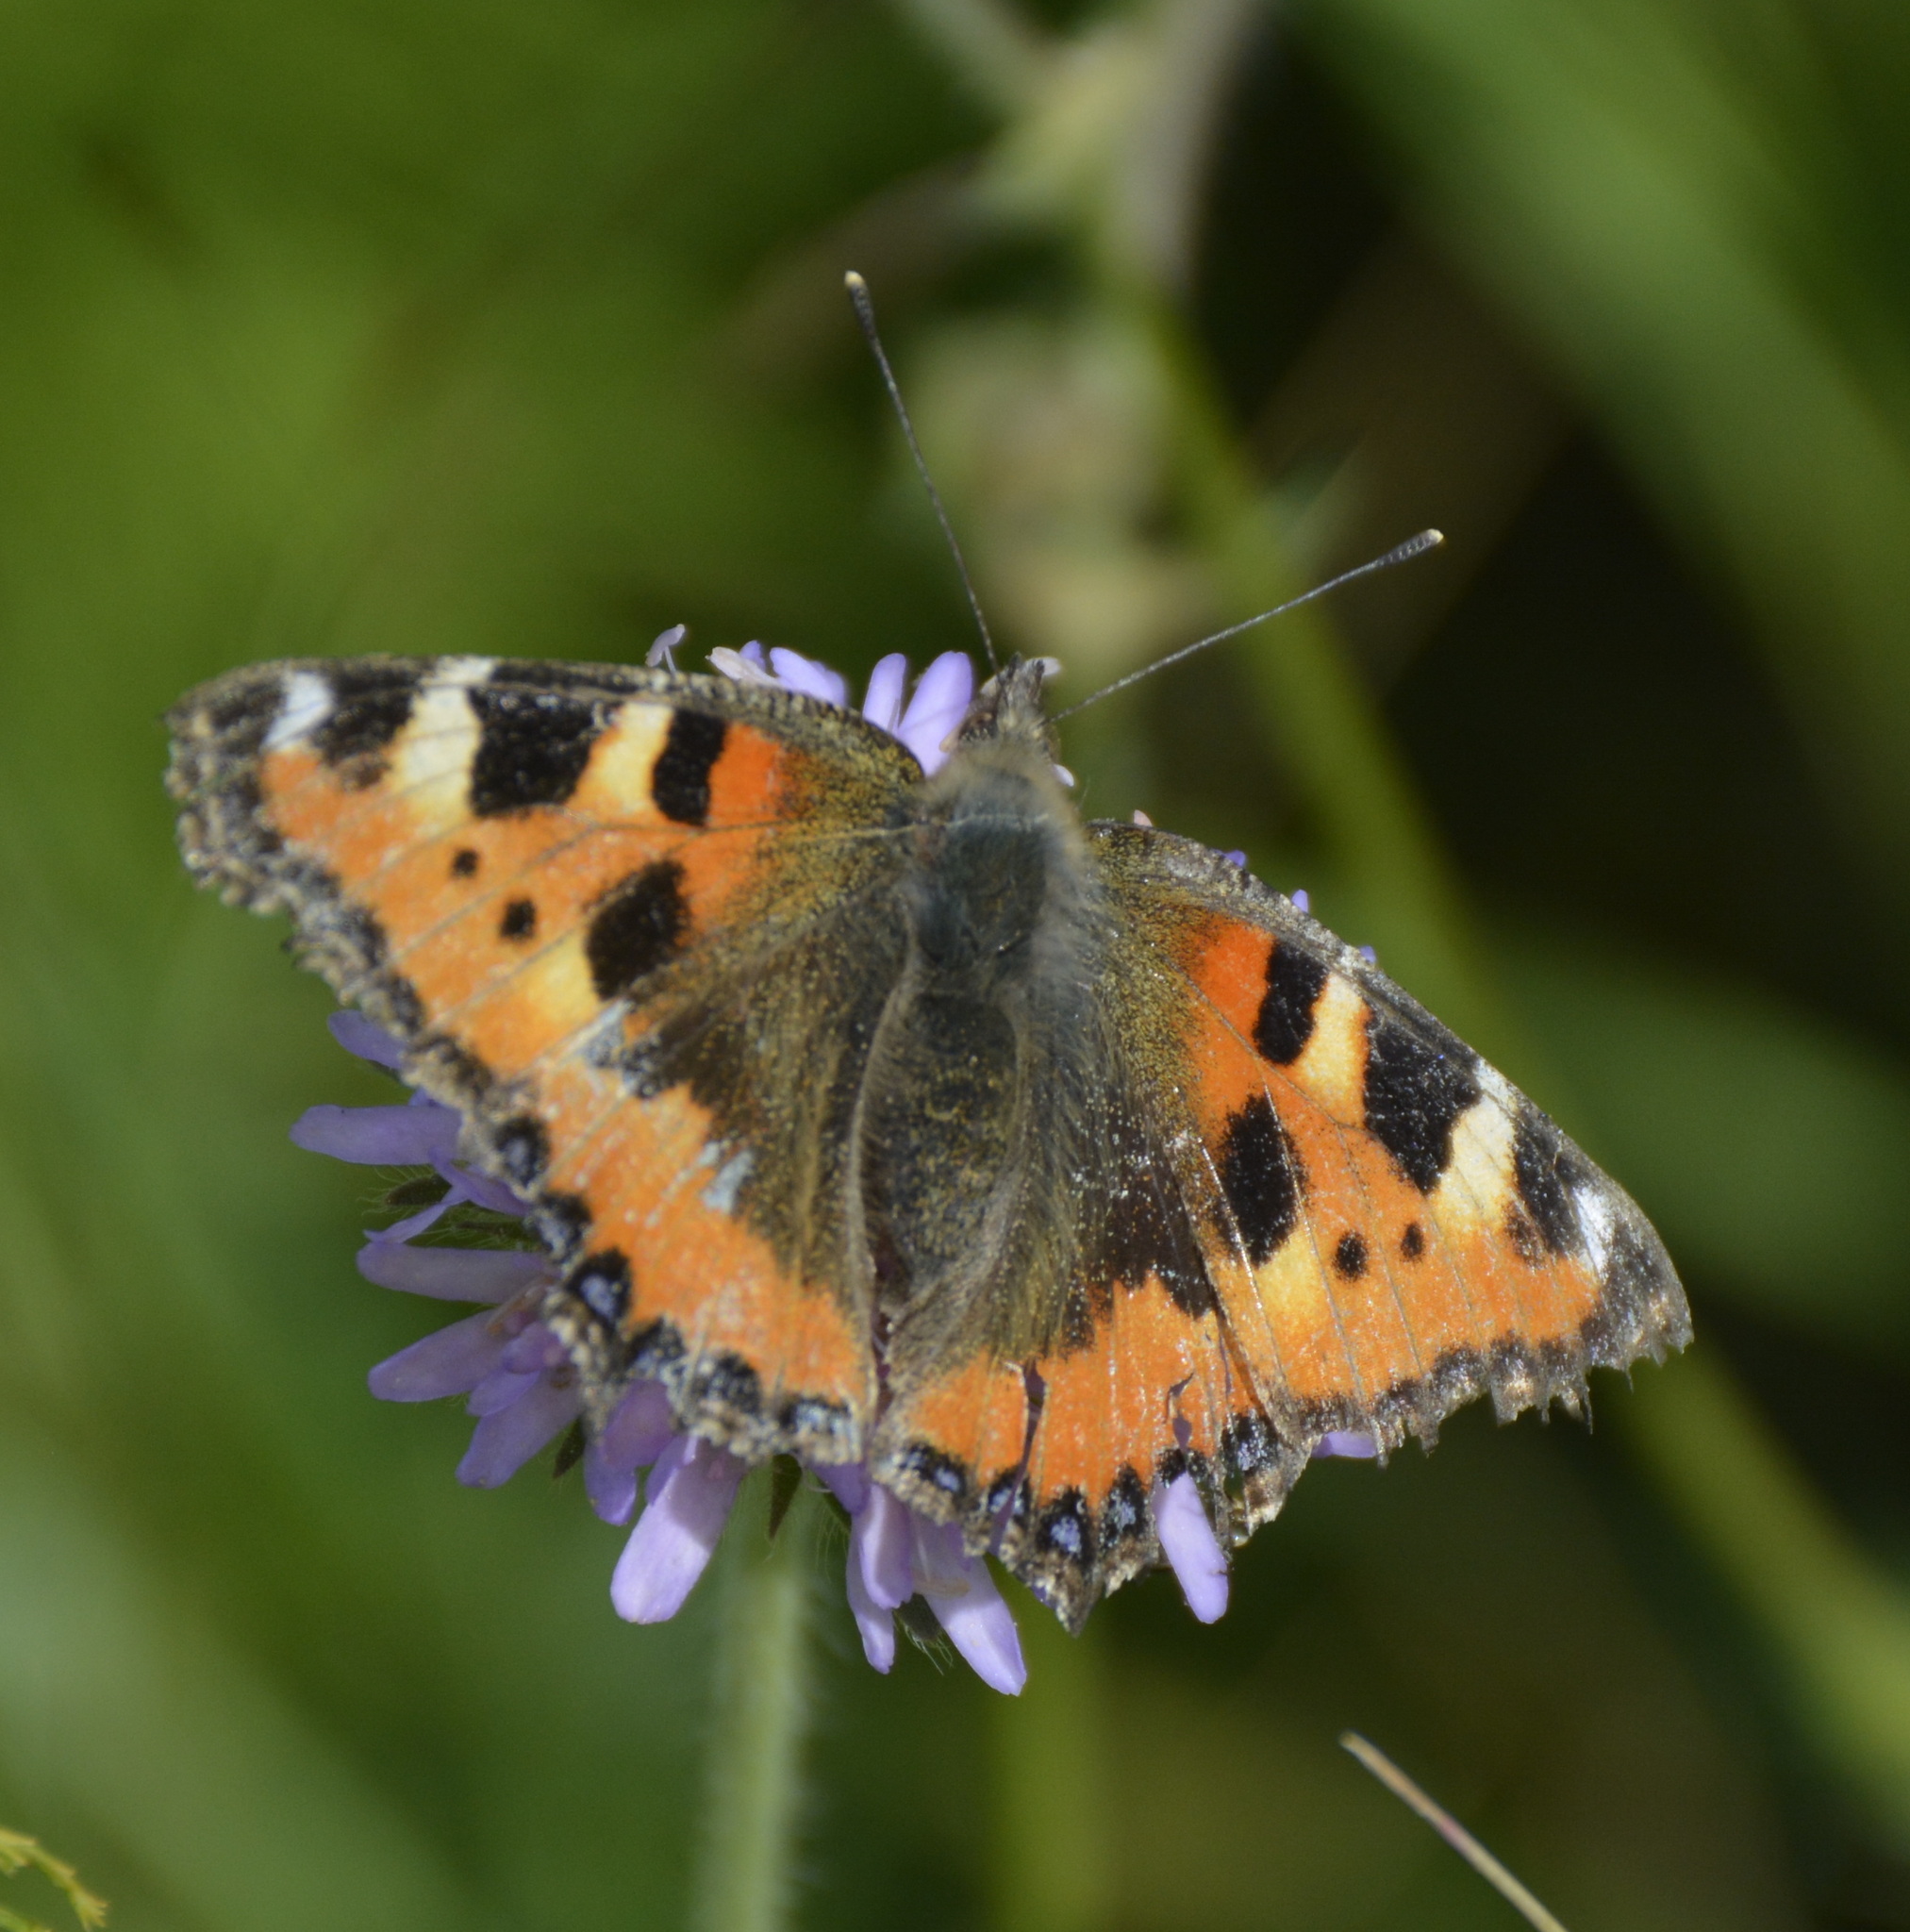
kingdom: Animalia
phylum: Arthropoda
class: Insecta
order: Lepidoptera
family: Nymphalidae
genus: Aglais
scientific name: Aglais urticae
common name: Small tortoiseshell
